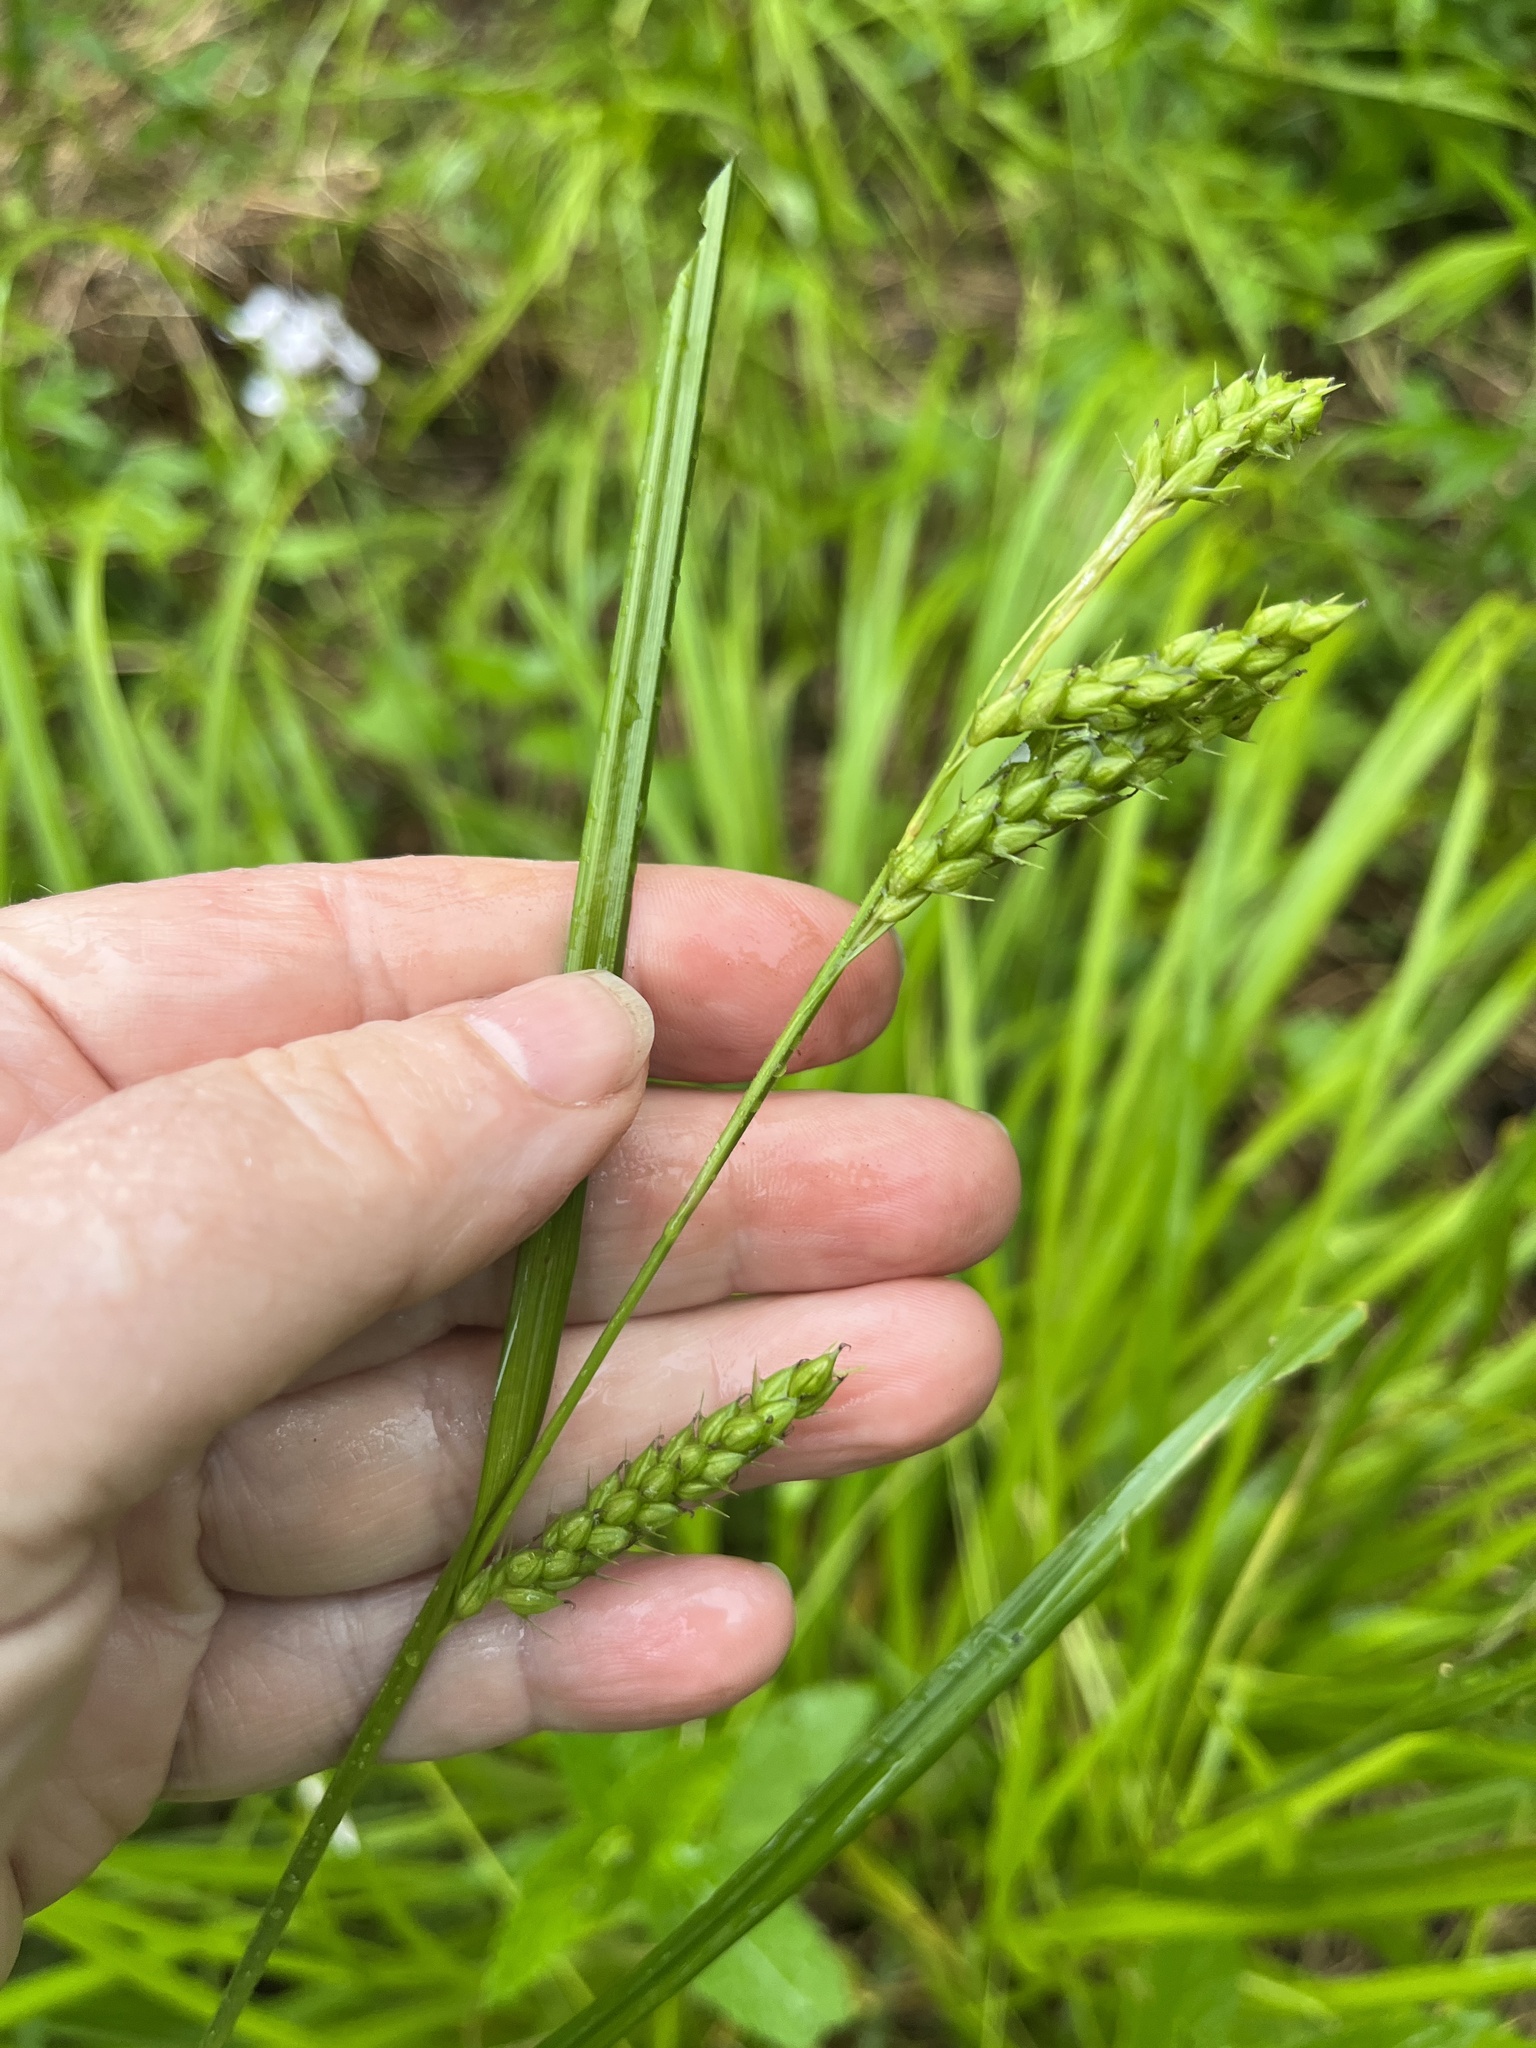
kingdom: Plantae
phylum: Tracheophyta
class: Liliopsida
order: Poales
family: Cyperaceae
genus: Carex
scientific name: Carex davisii
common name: Davis' sedge
